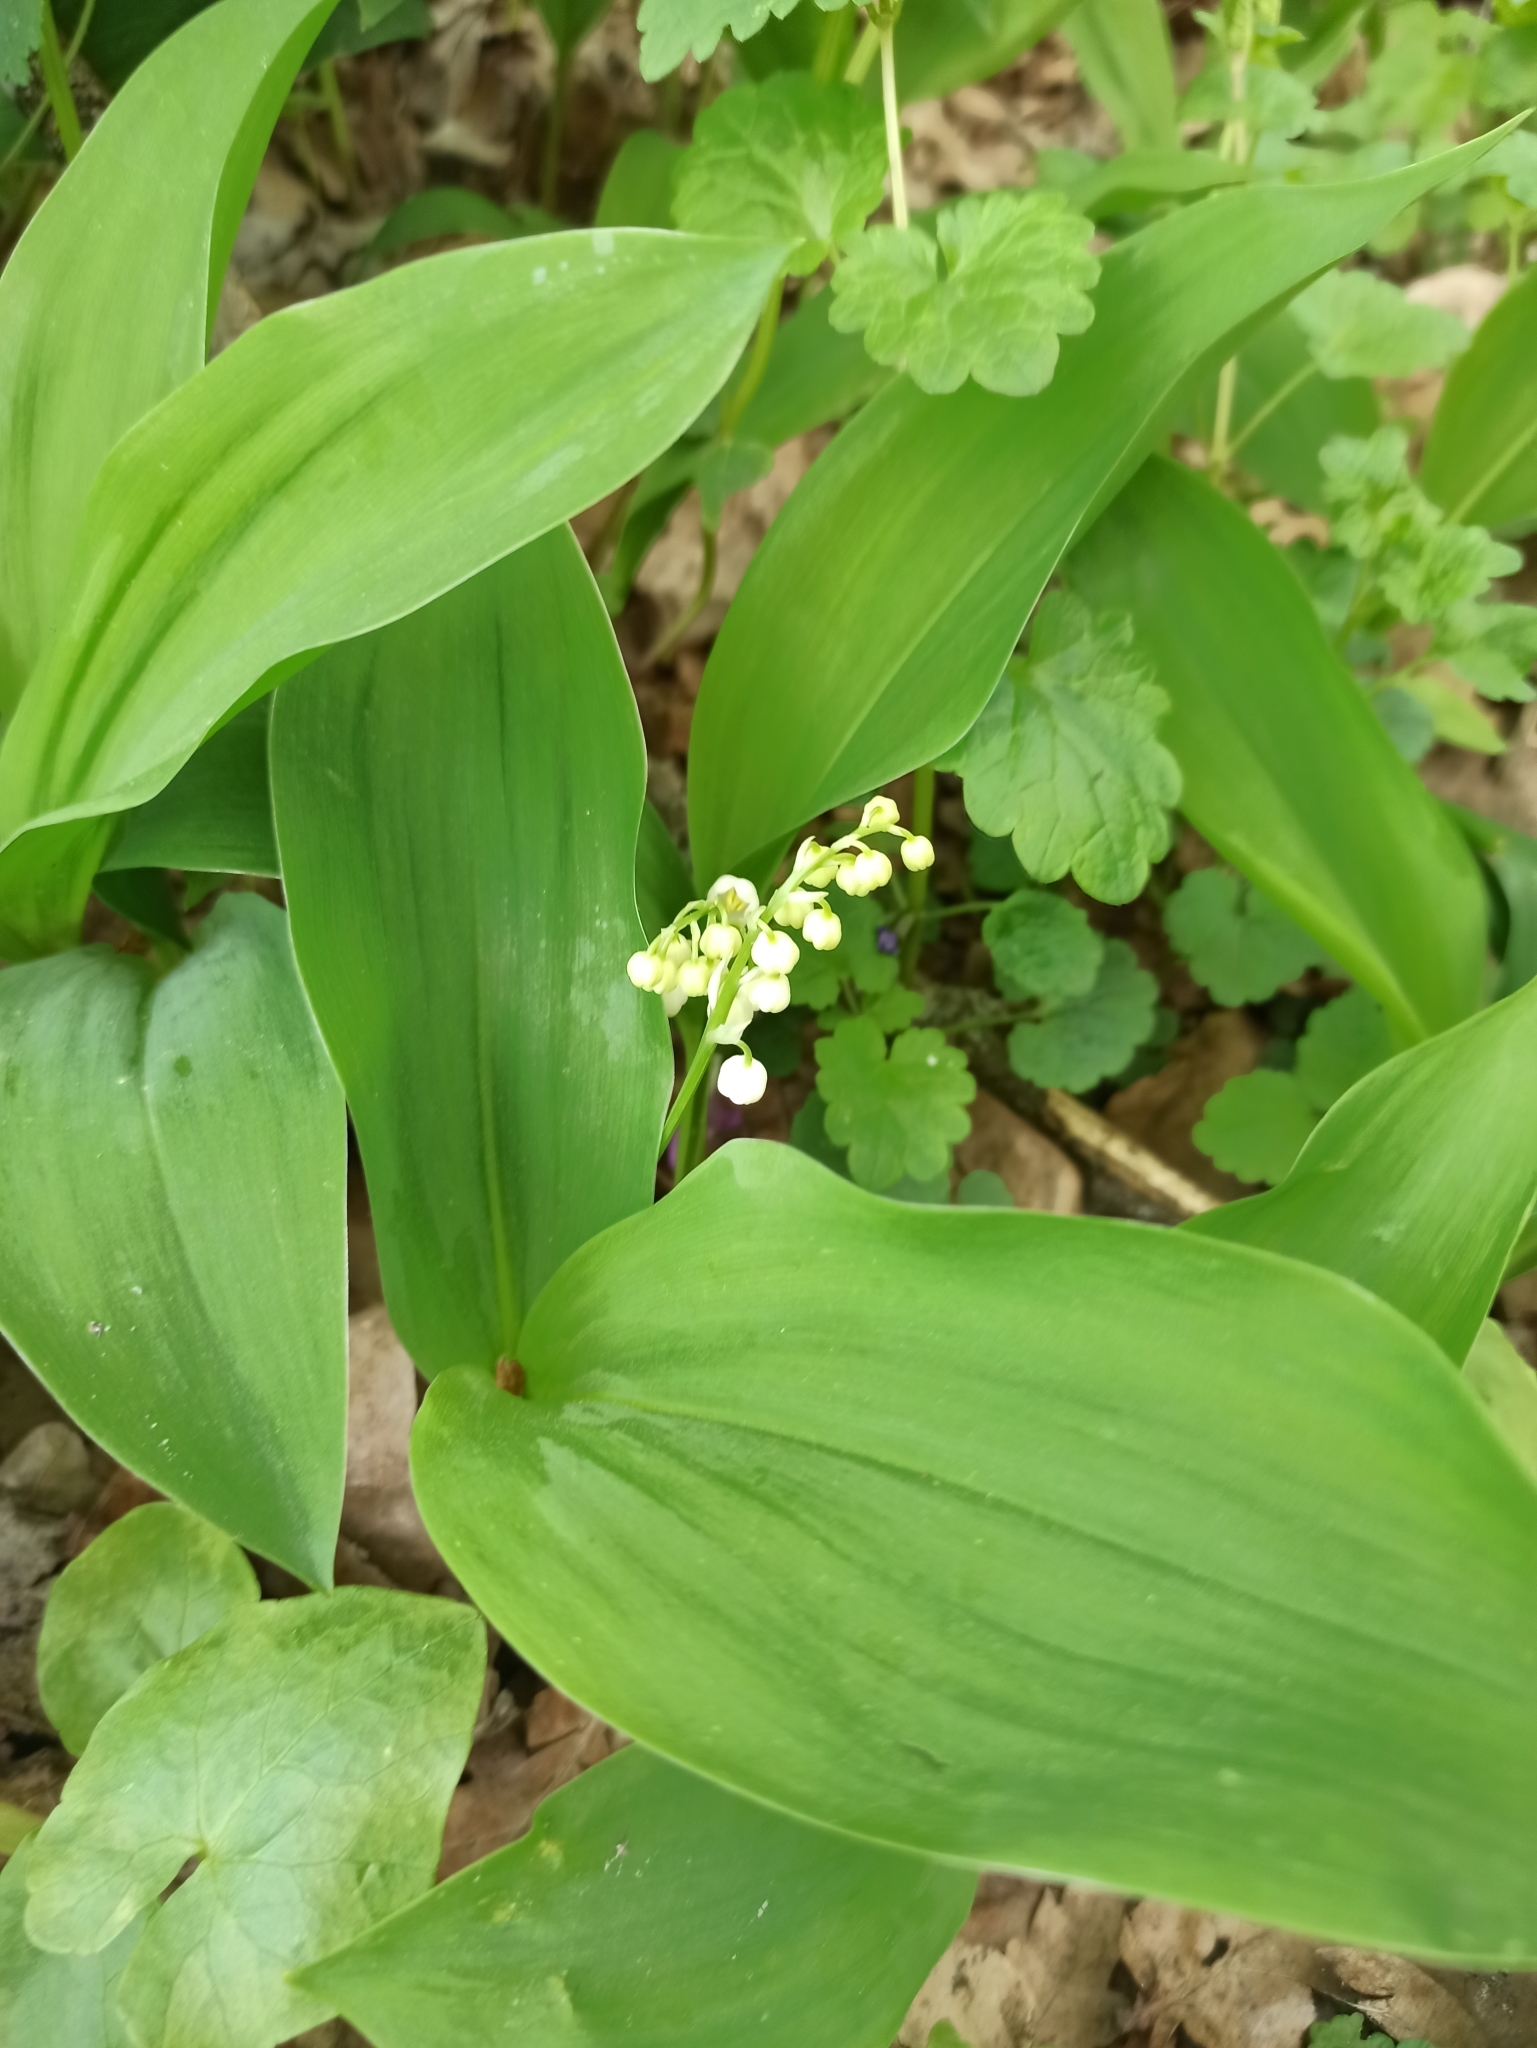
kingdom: Plantae
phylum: Tracheophyta
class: Liliopsida
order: Asparagales
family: Asparagaceae
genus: Convallaria
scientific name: Convallaria majalis
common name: Lily-of-the-valley
